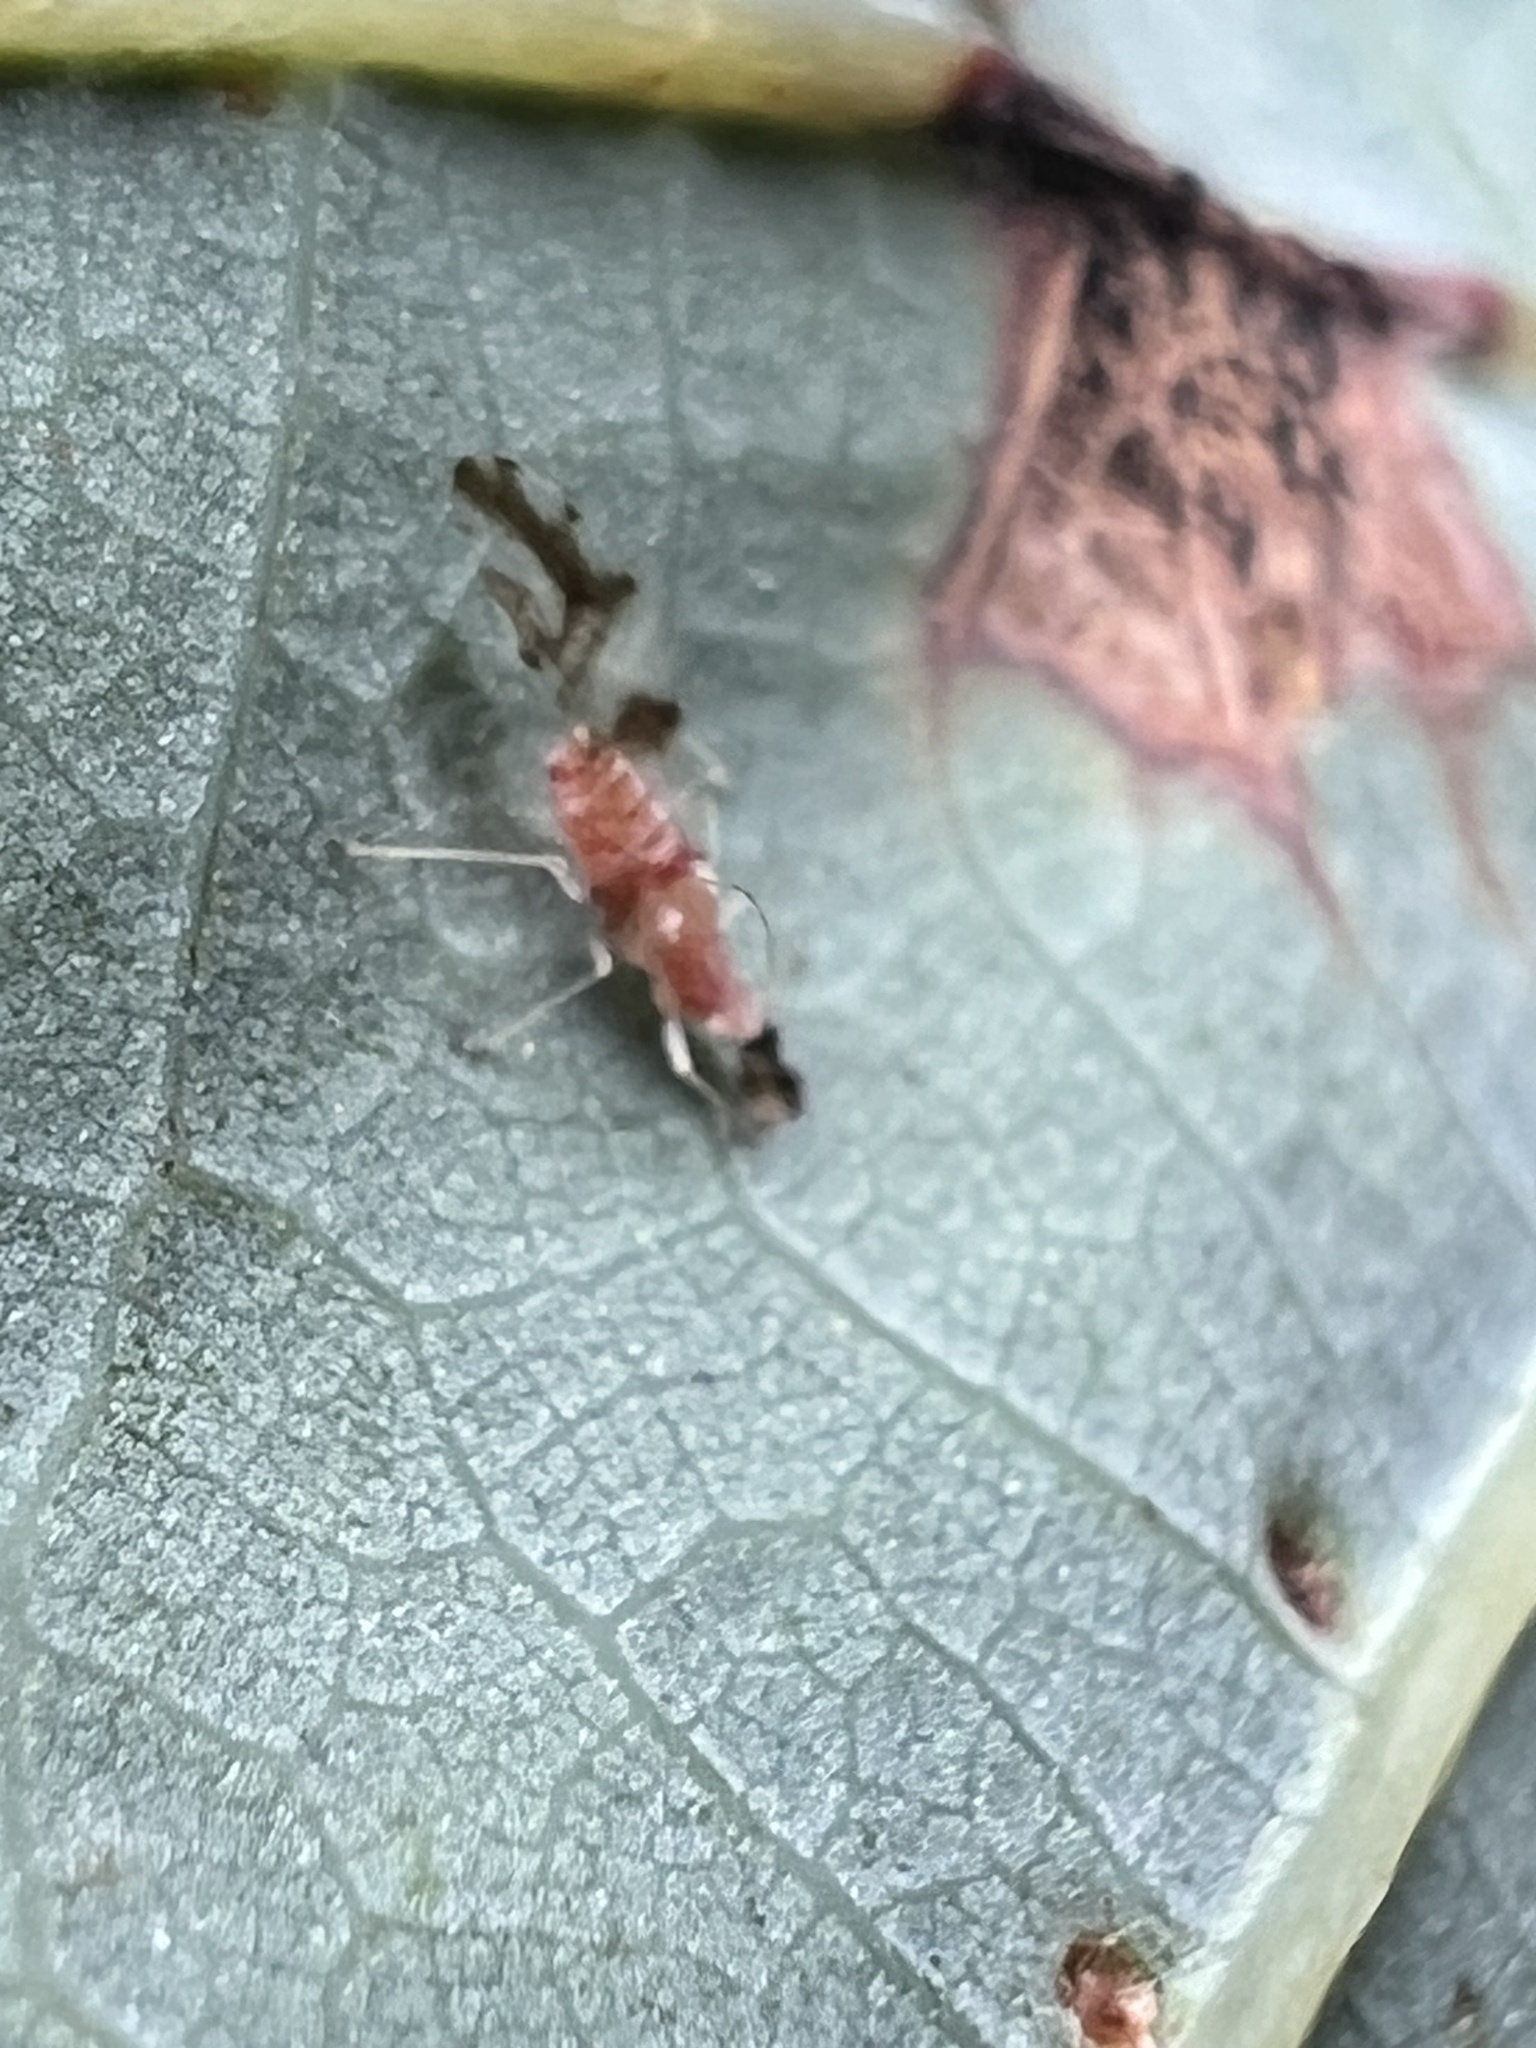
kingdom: Animalia
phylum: Arthropoda
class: Insecta
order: Hemiptera
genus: Neomyzocallis
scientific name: Neomyzocallis
